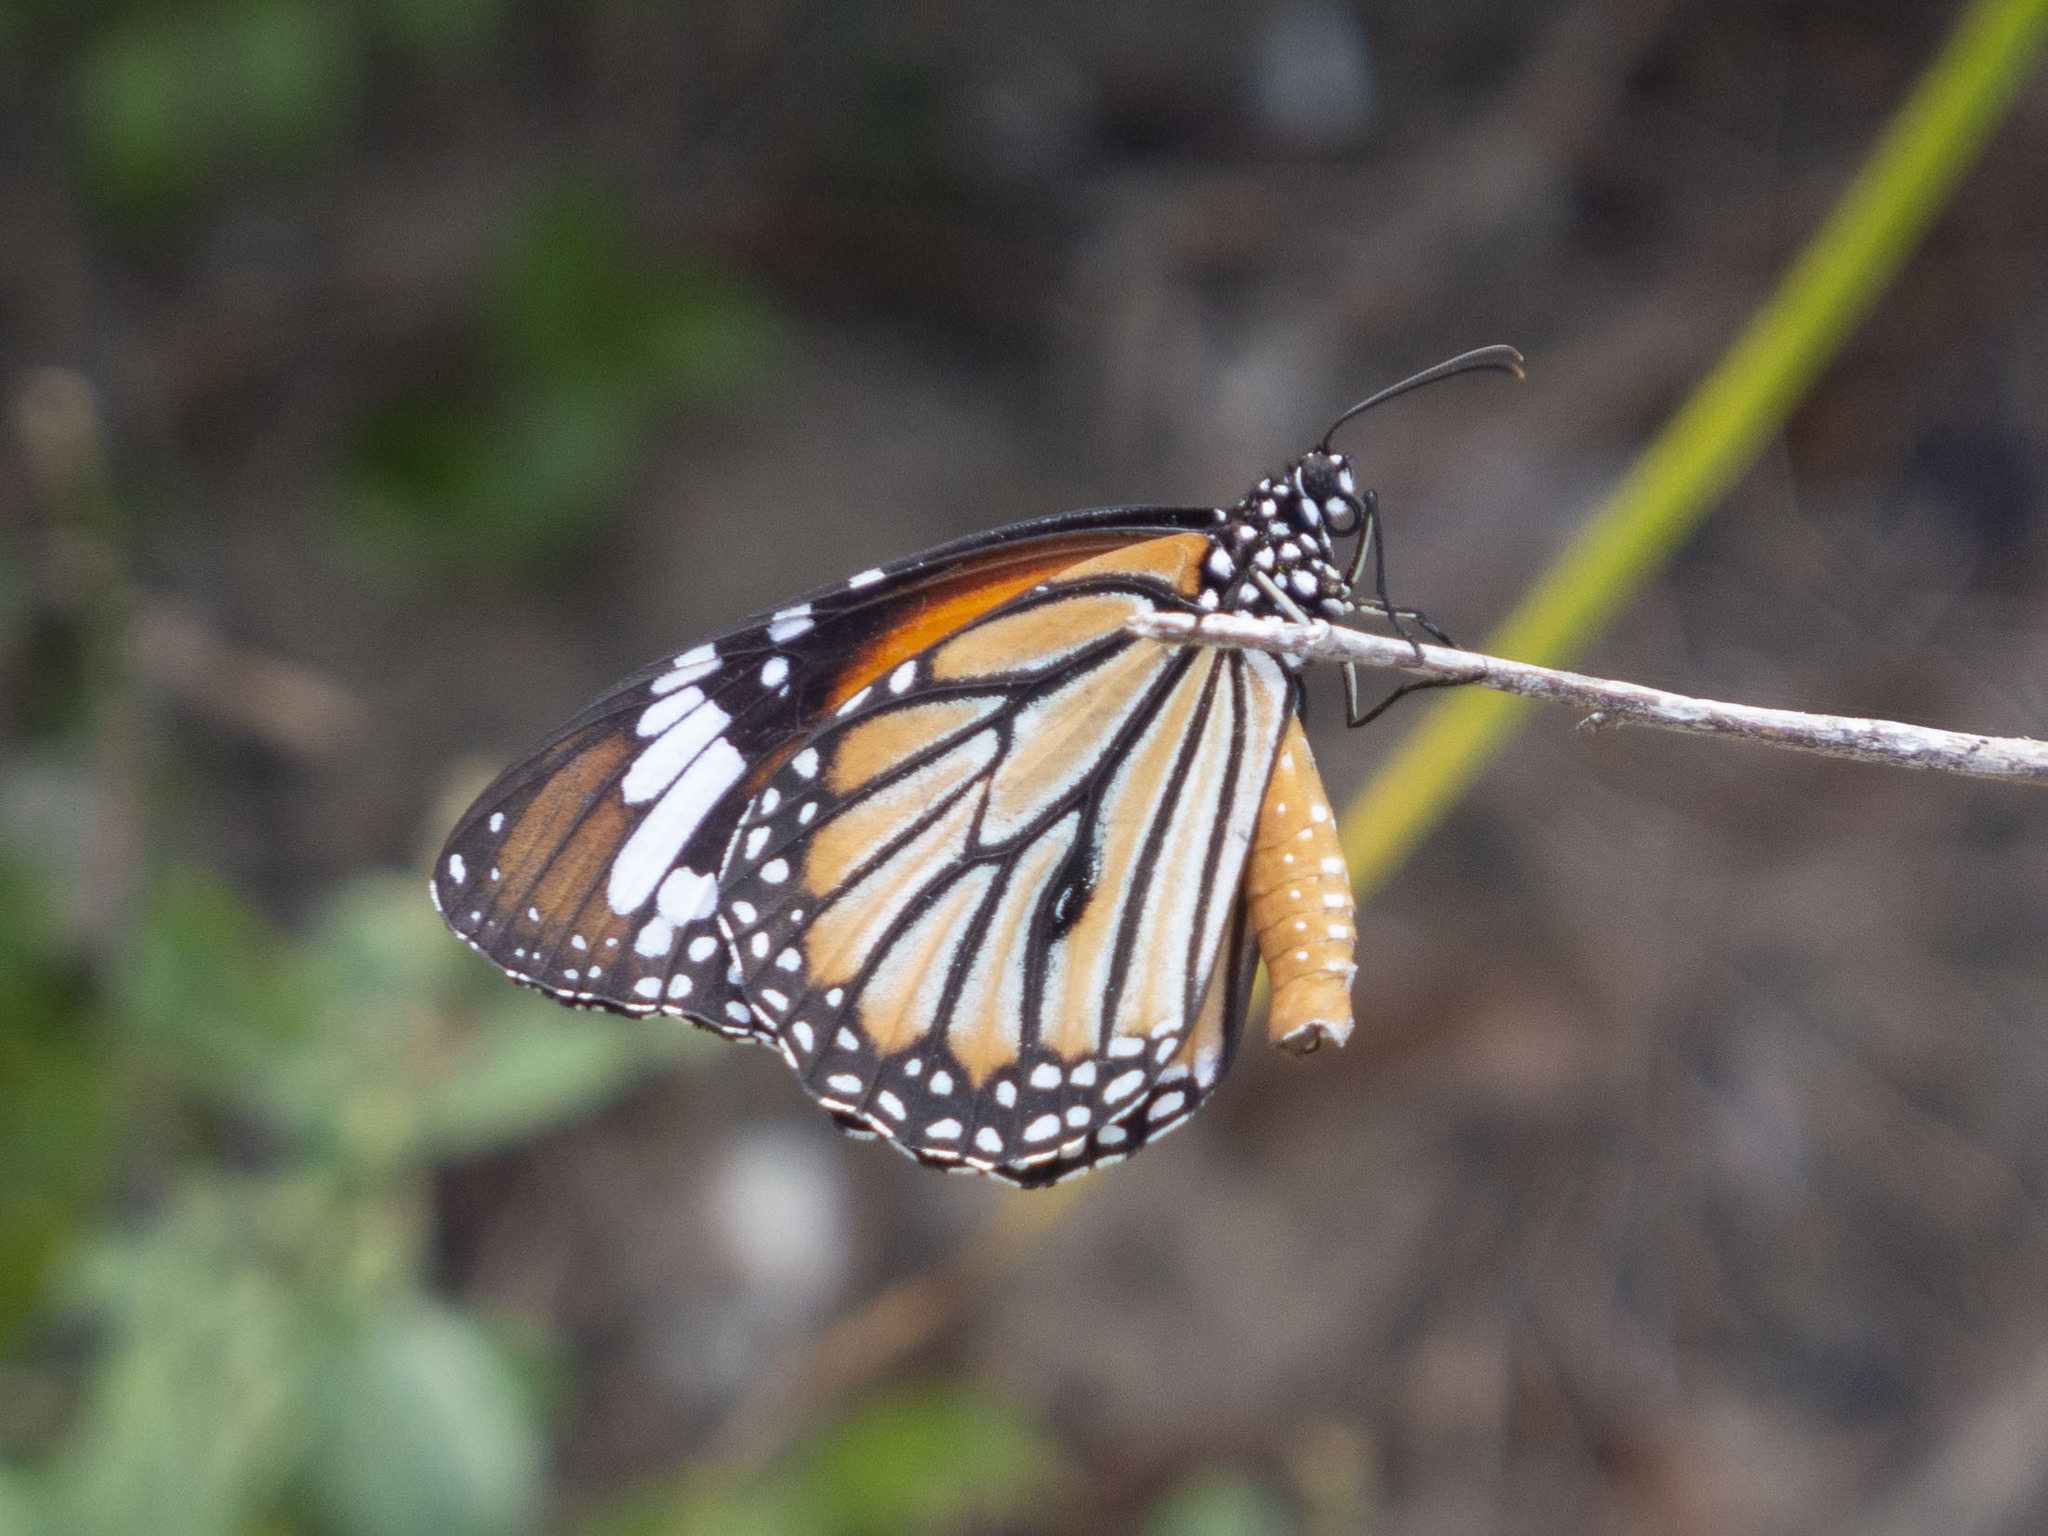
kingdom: Animalia
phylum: Arthropoda
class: Insecta
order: Lepidoptera
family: Nymphalidae
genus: Danaus
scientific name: Danaus genutia
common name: Common tiger butterfly
